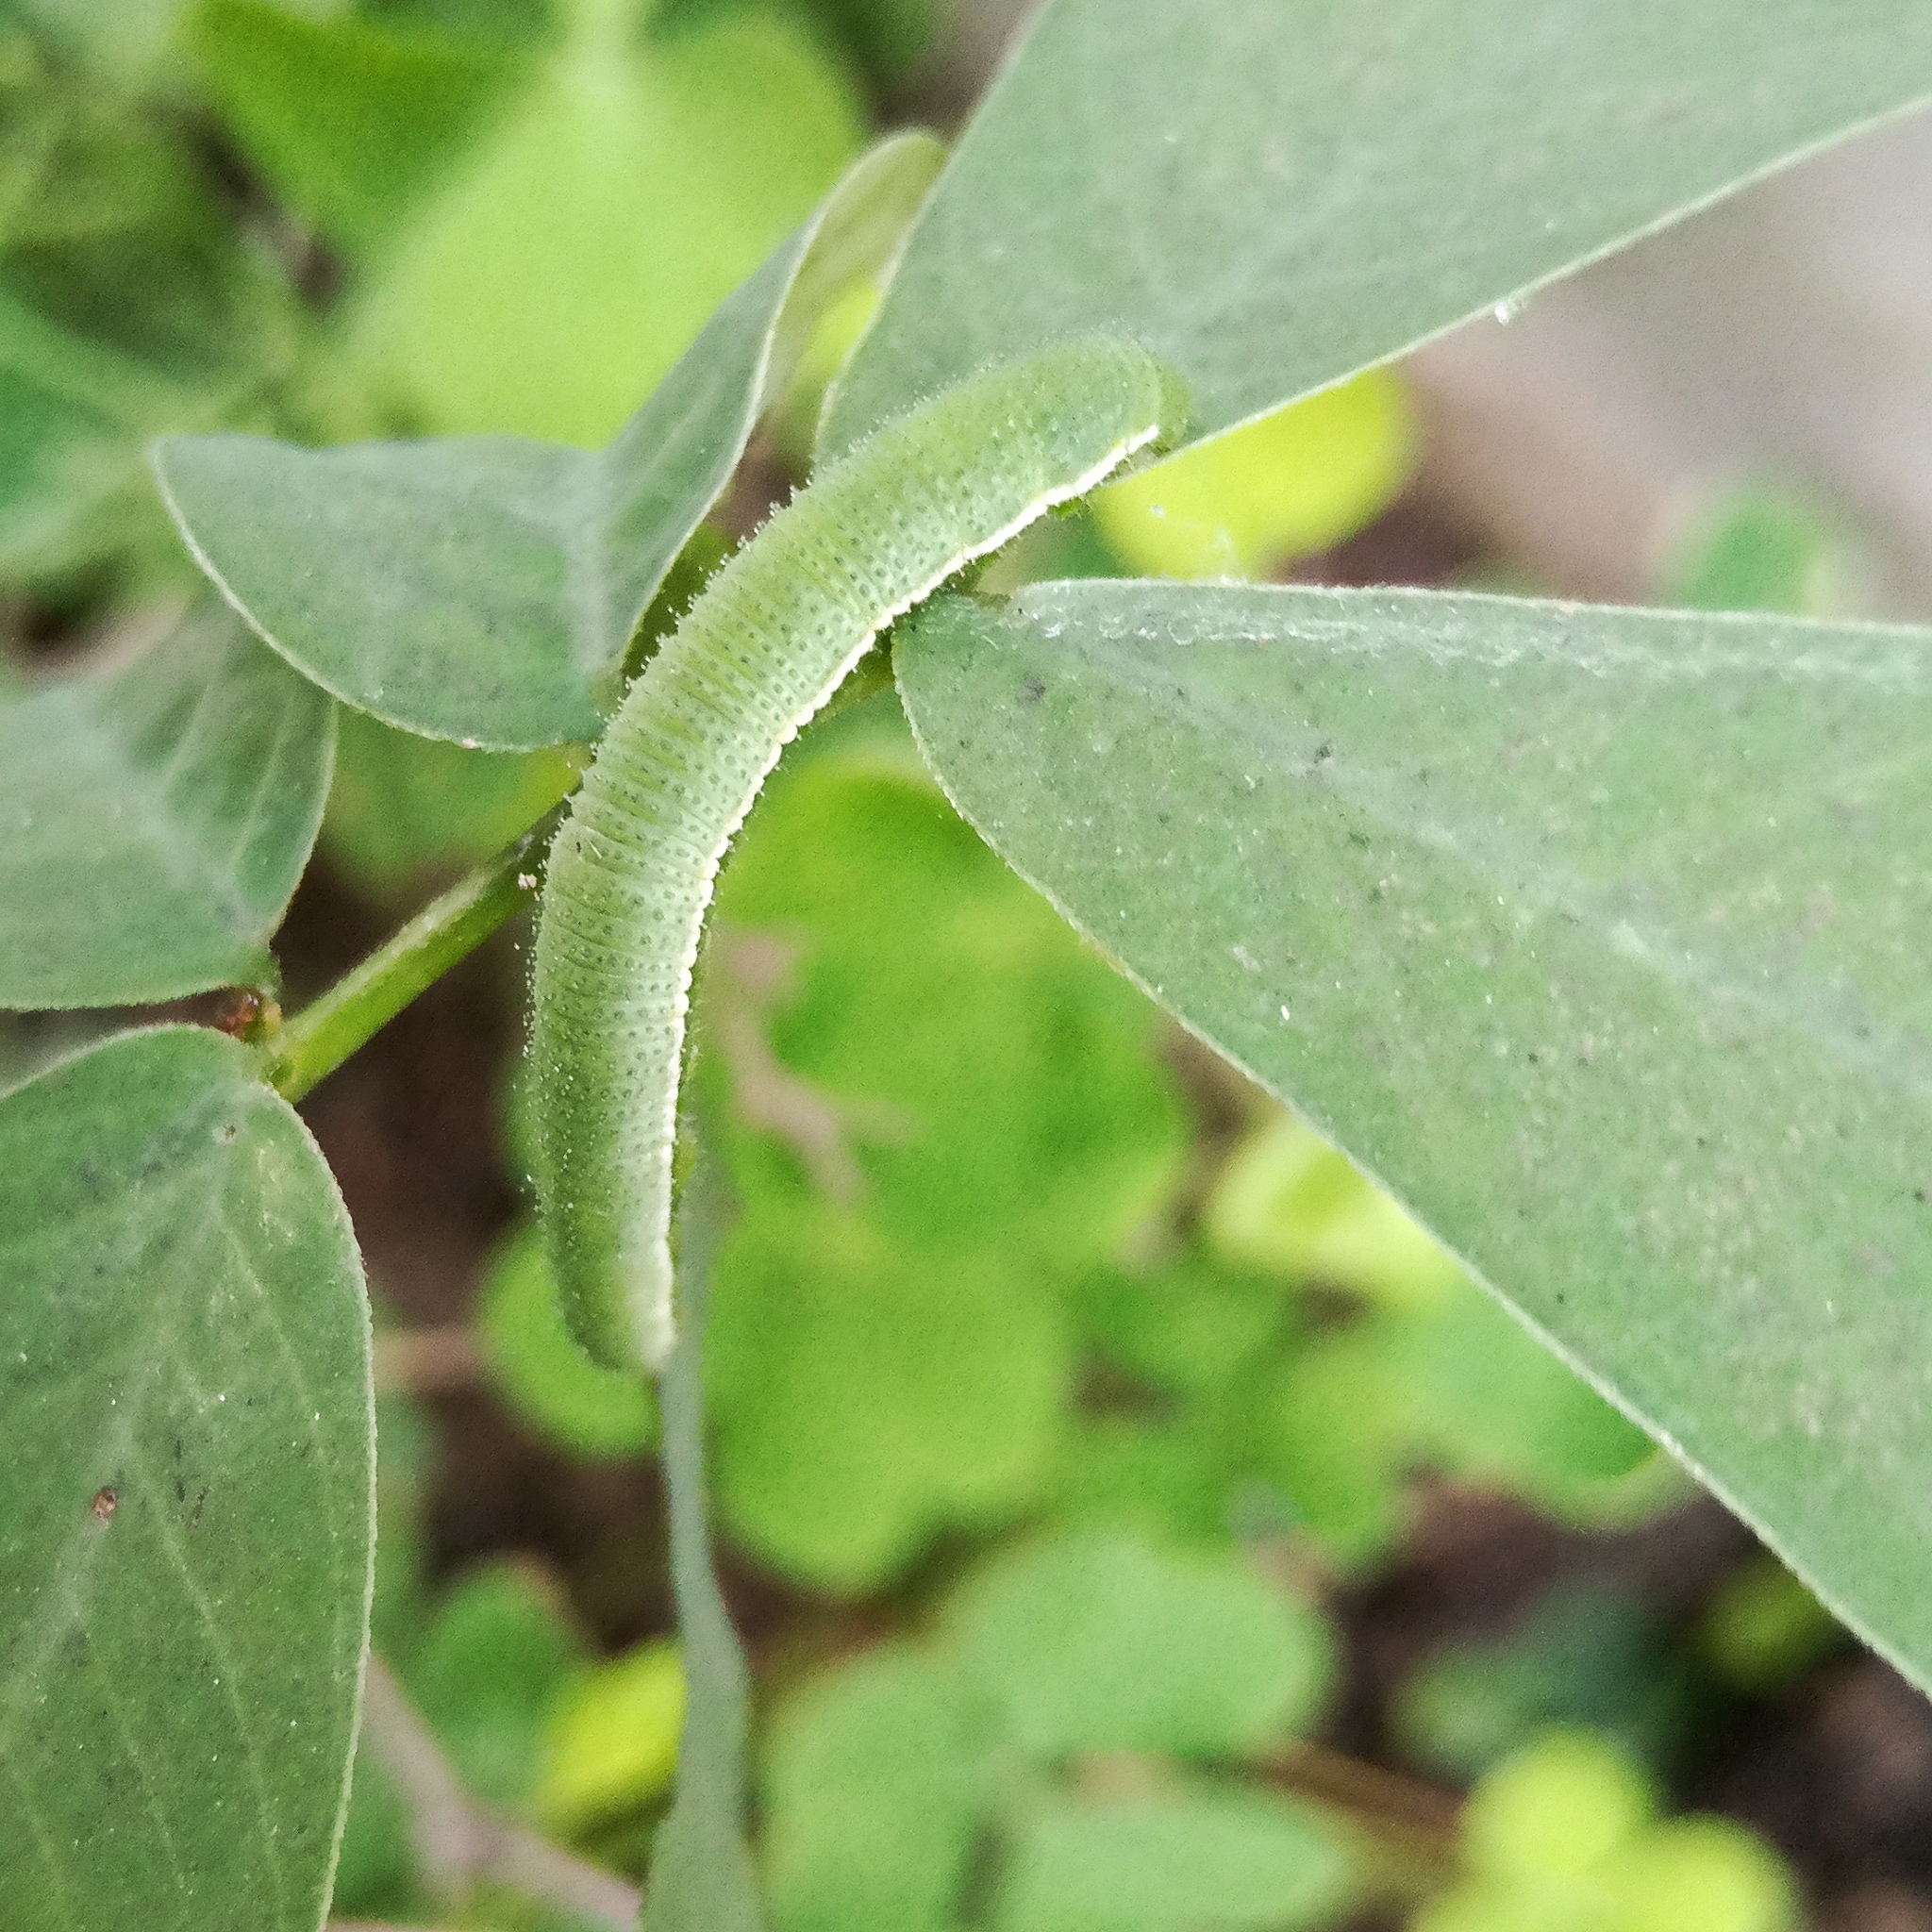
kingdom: Animalia
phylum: Arthropoda
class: Insecta
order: Lepidoptera
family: Pieridae
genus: Eurema
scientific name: Eurema hecabe
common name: Pale grass yellow
